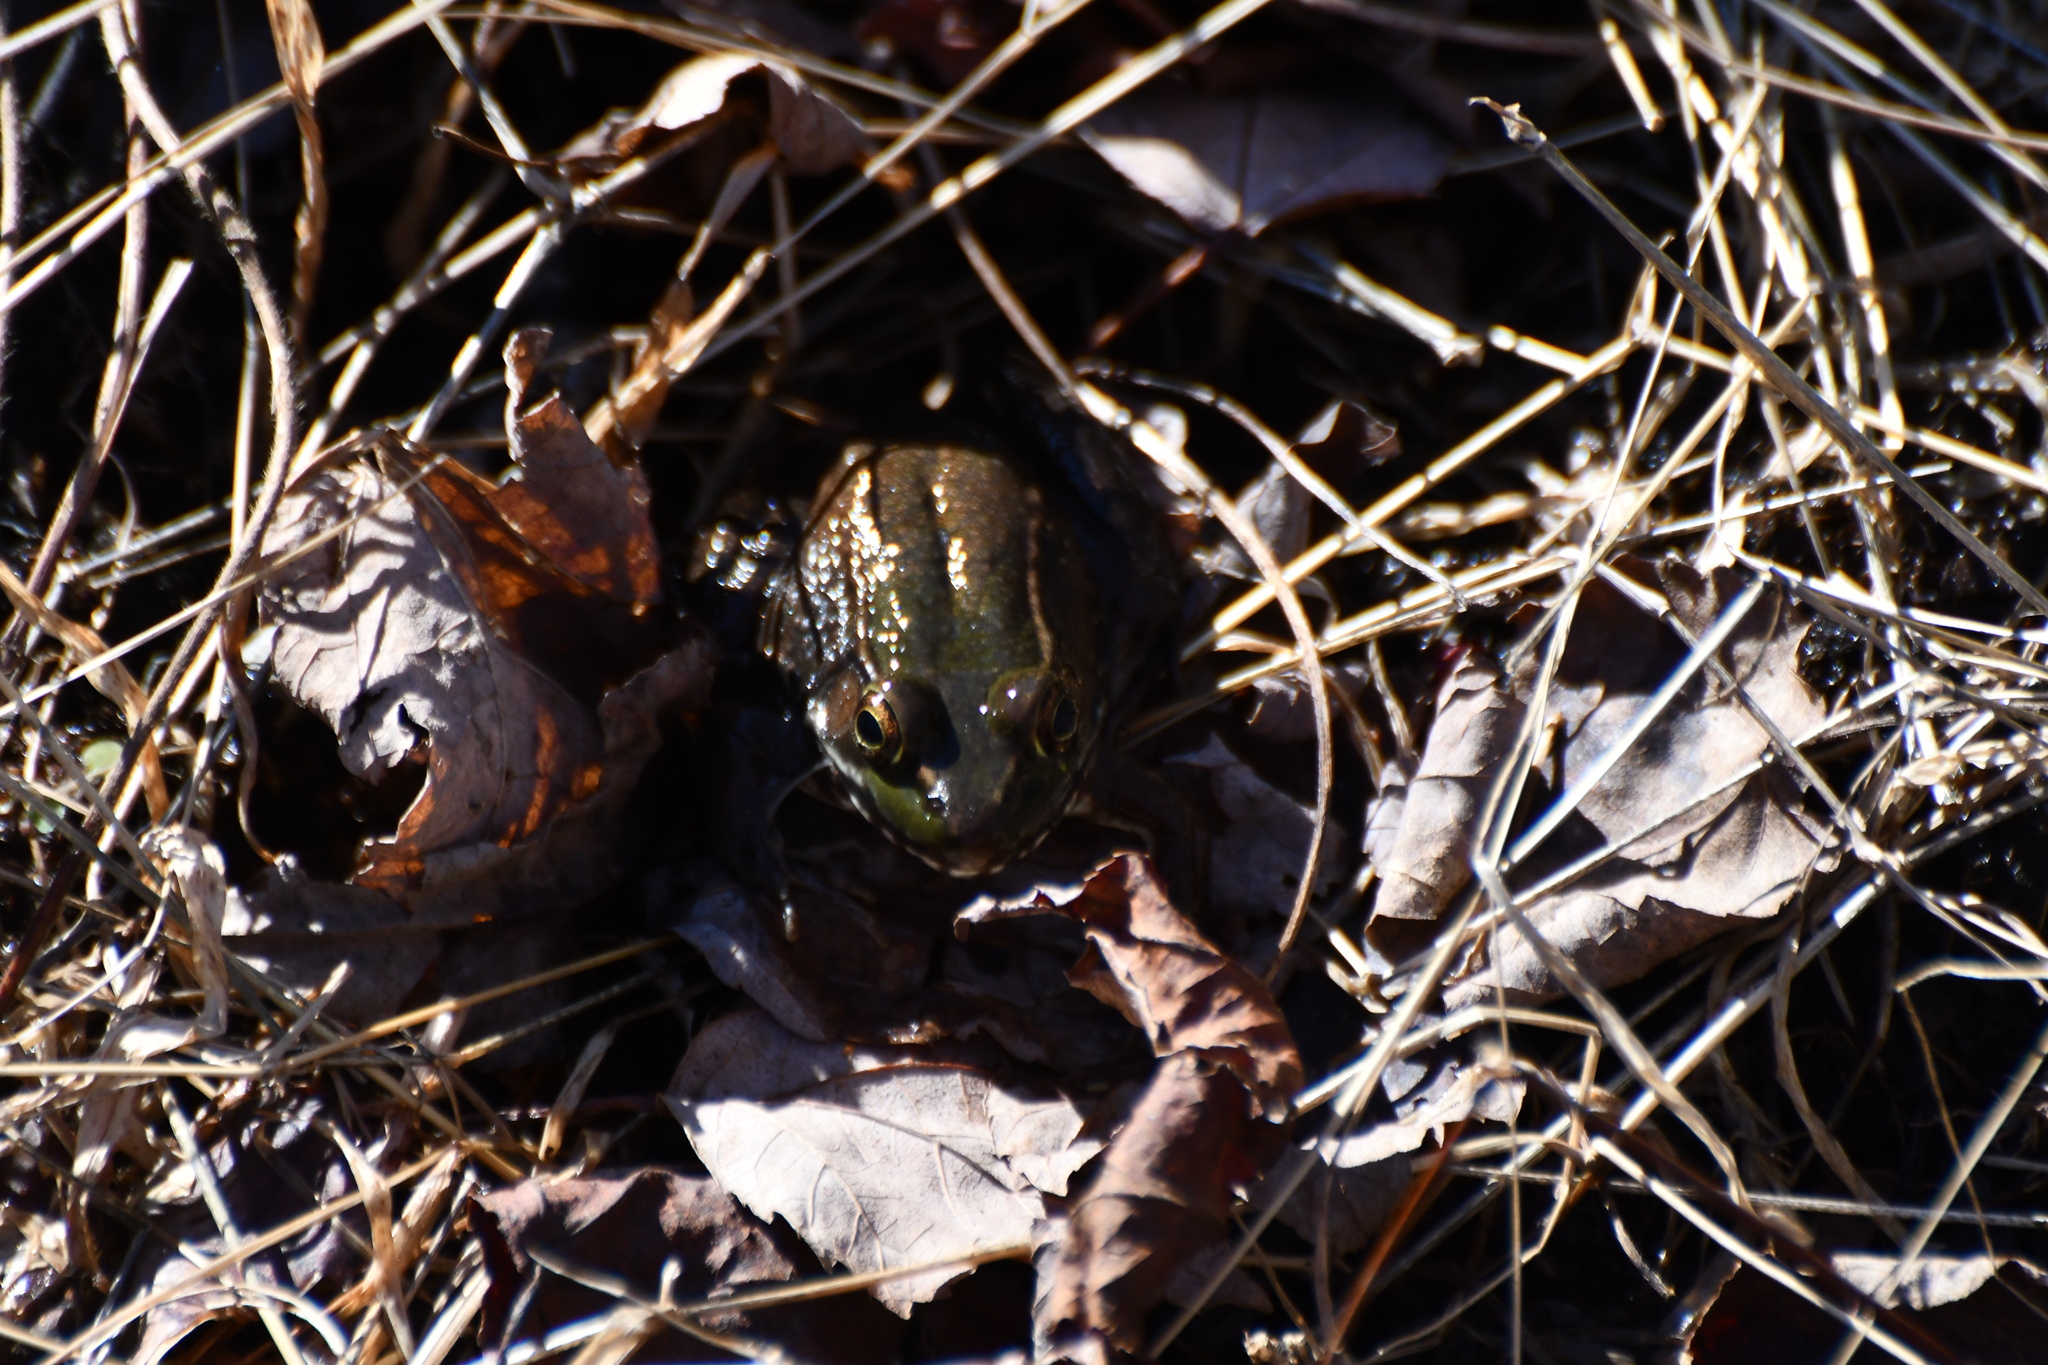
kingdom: Animalia
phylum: Chordata
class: Amphibia
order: Anura
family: Ranidae
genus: Lithobates
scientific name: Lithobates clamitans
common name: Green frog
